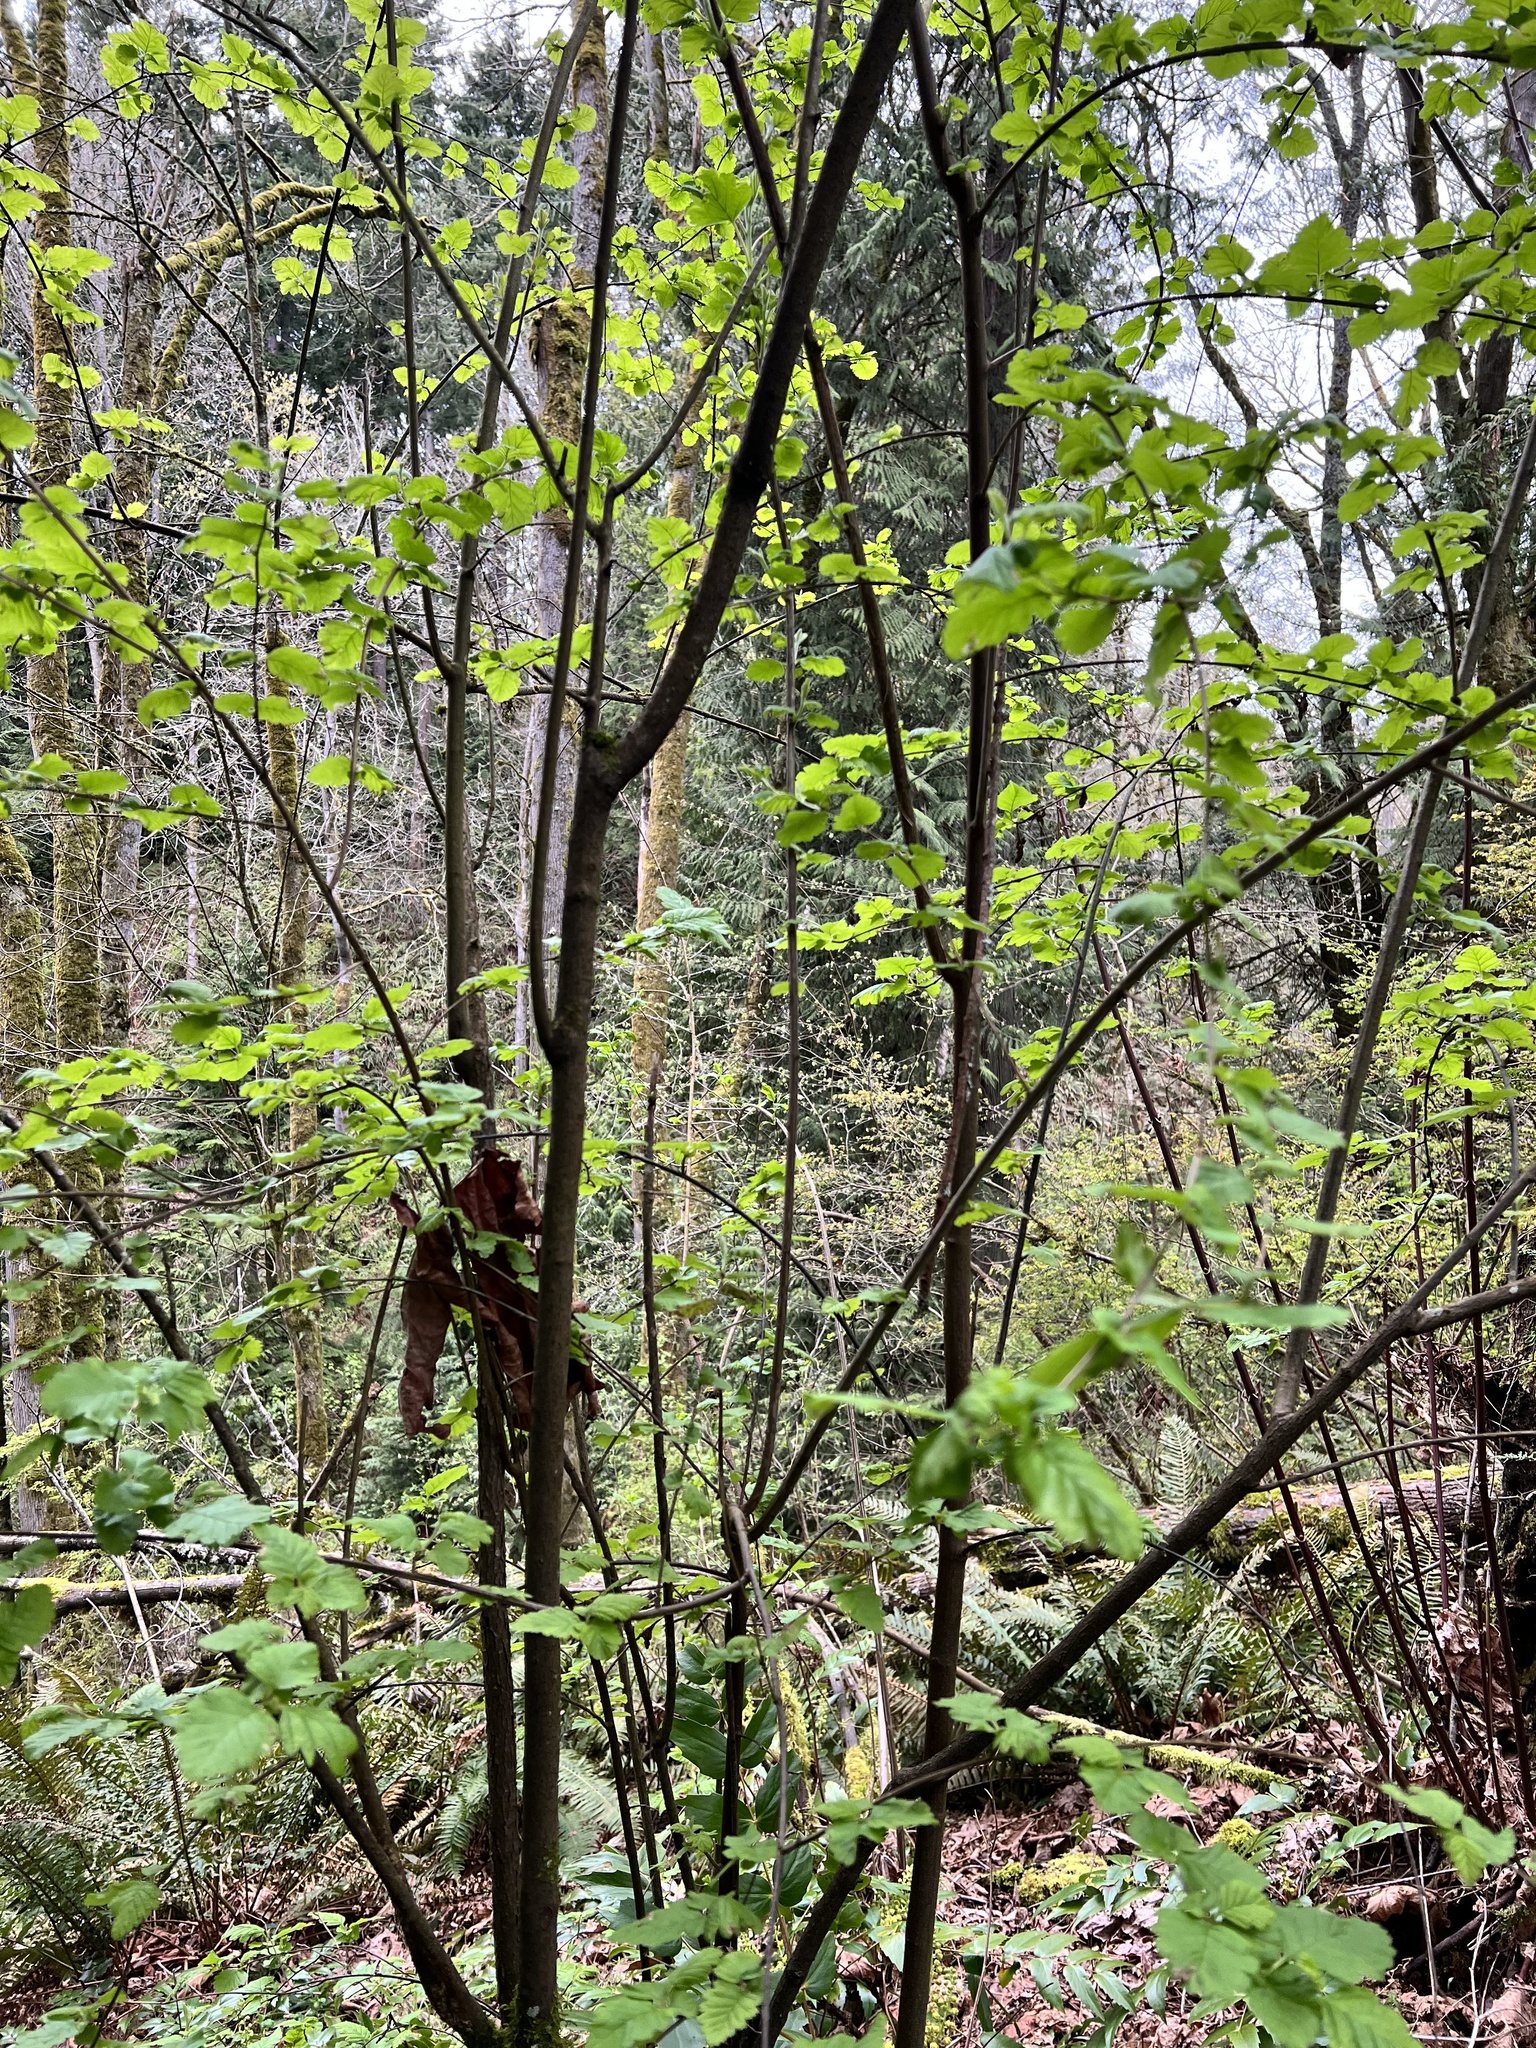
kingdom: Plantae
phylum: Tracheophyta
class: Magnoliopsida
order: Rosales
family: Rosaceae
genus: Holodiscus
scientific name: Holodiscus discolor
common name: Oceanspray
